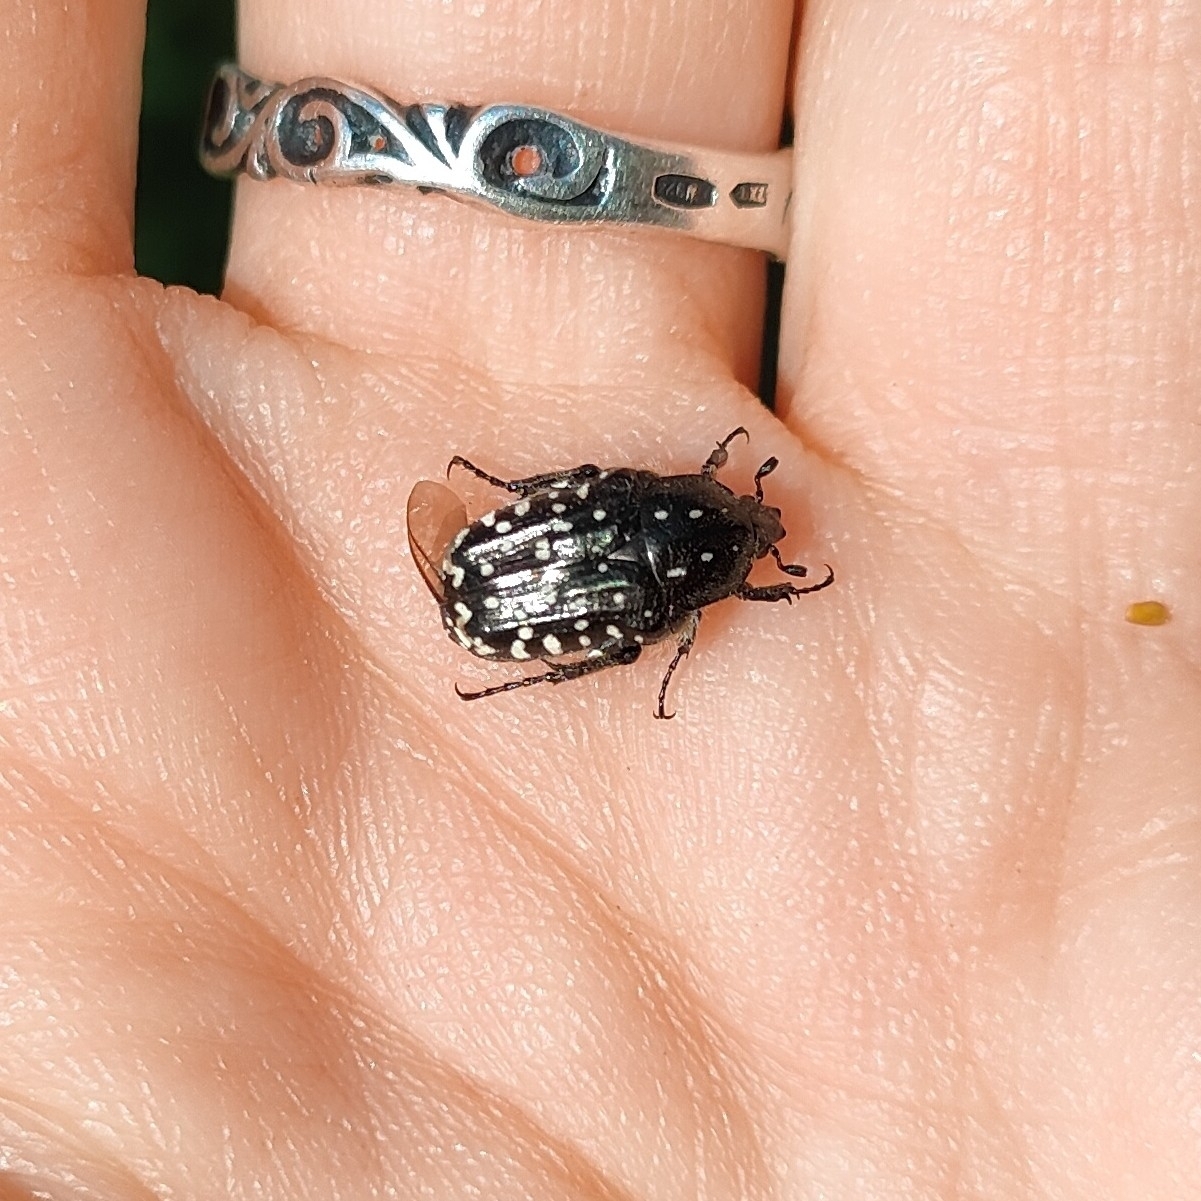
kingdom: Animalia
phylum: Arthropoda
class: Insecta
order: Coleoptera
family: Scarabaeidae
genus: Oxythyrea
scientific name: Oxythyrea funesta
